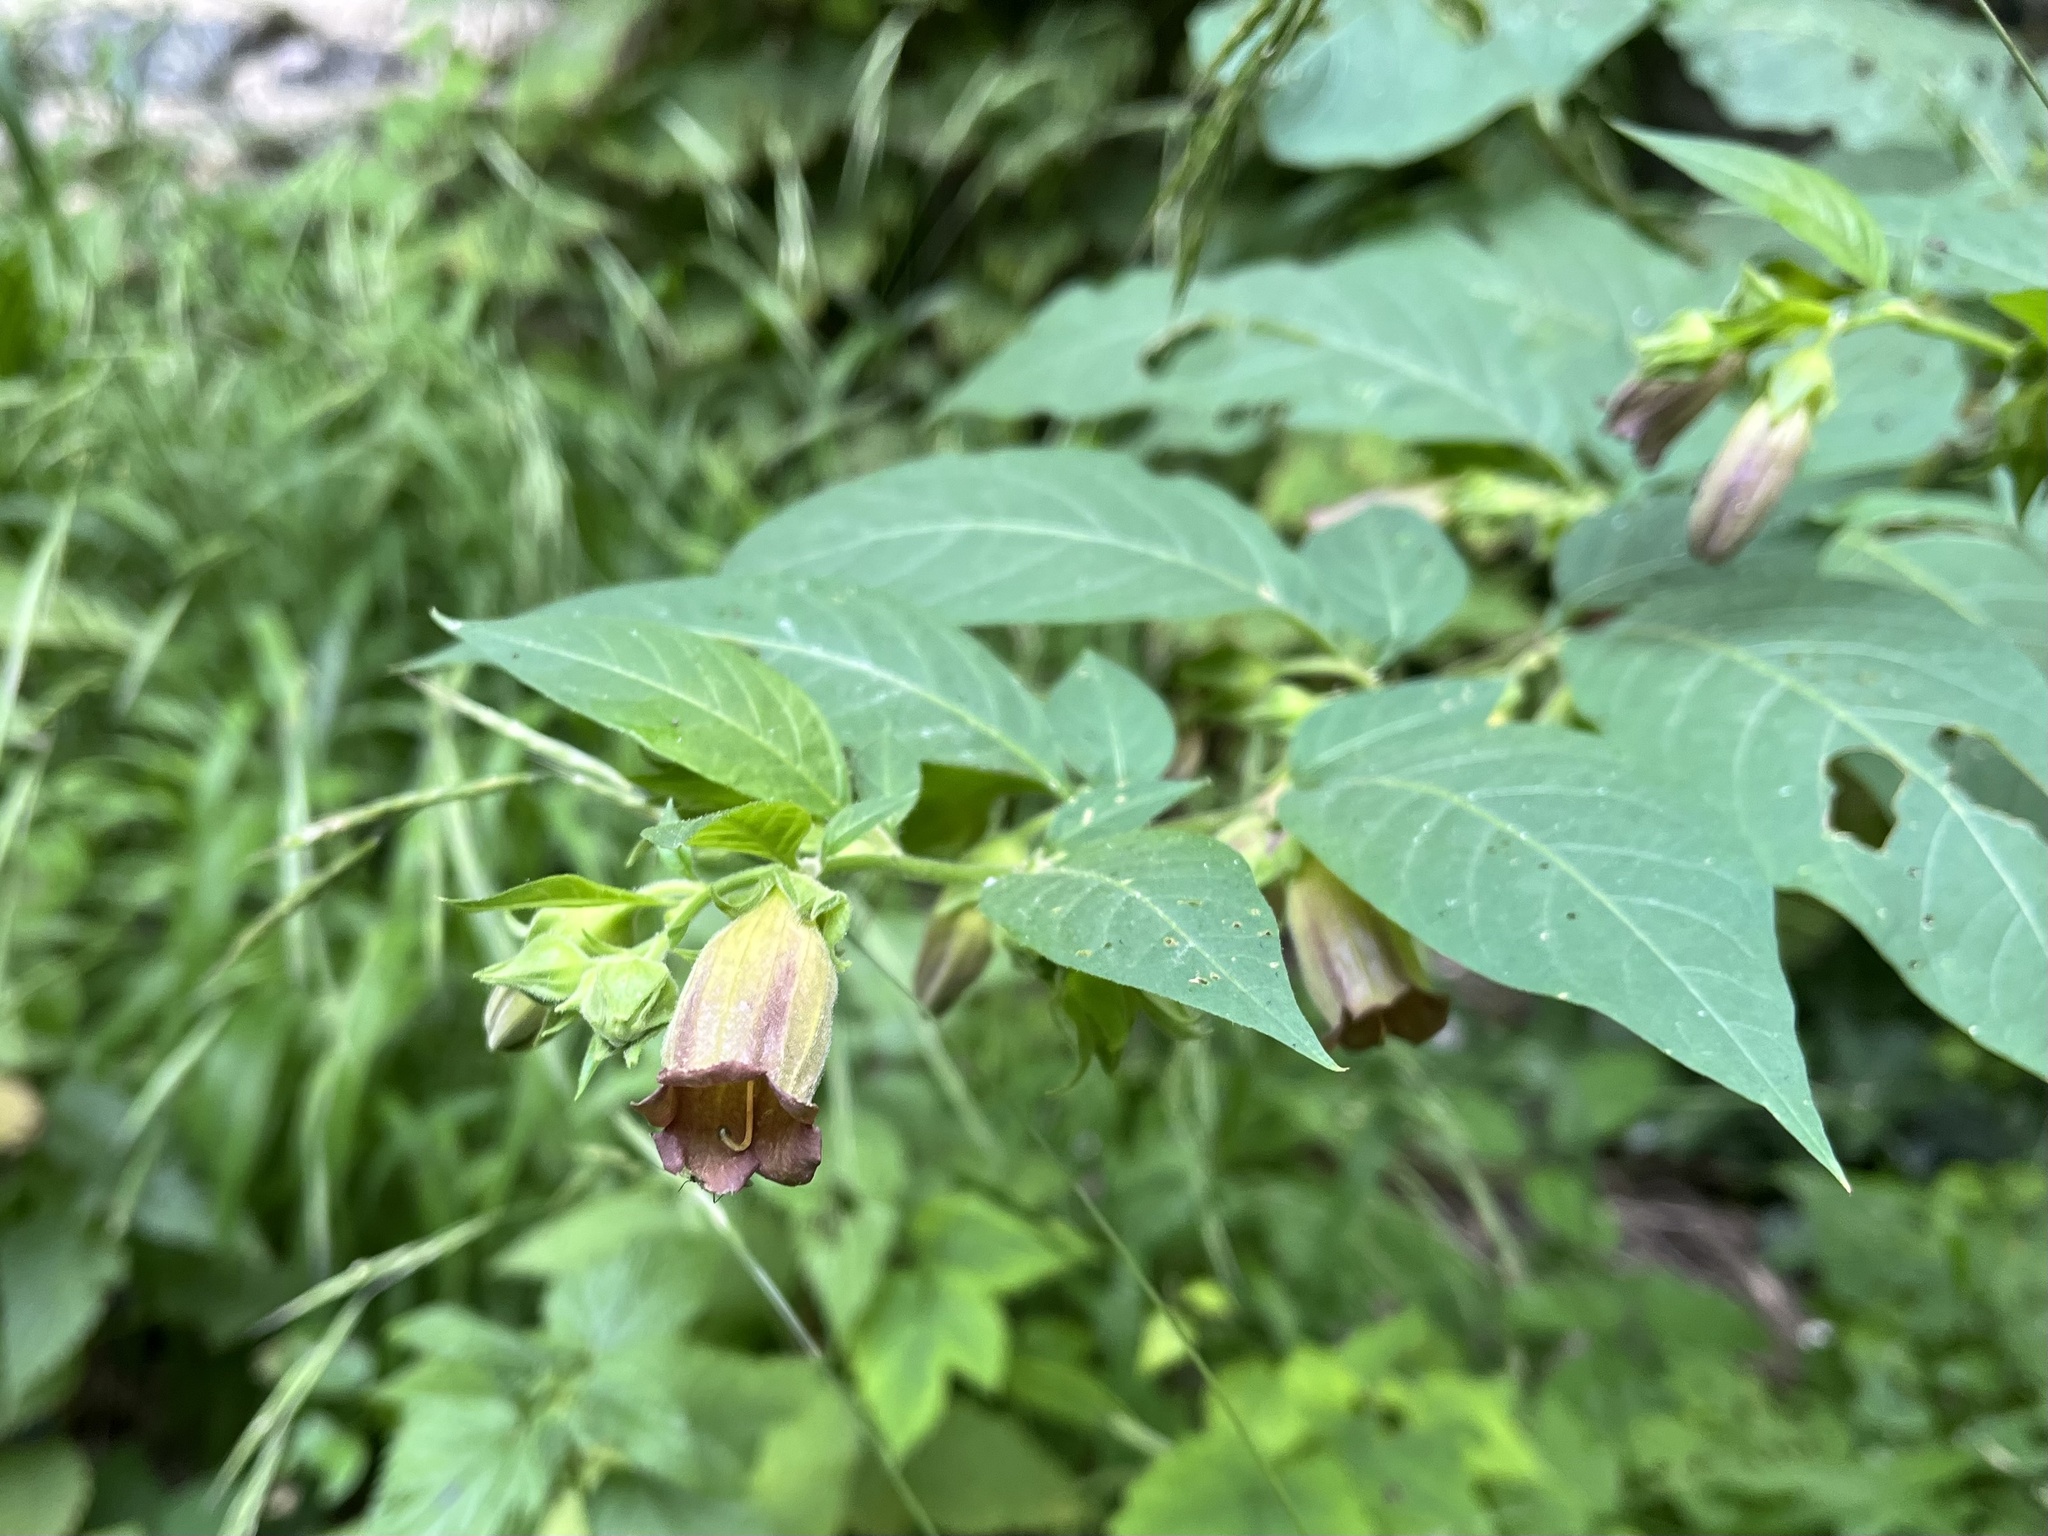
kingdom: Plantae
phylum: Tracheophyta
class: Magnoliopsida
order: Solanales
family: Solanaceae
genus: Atropa
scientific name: Atropa belladonna
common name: Deadly nightshade
